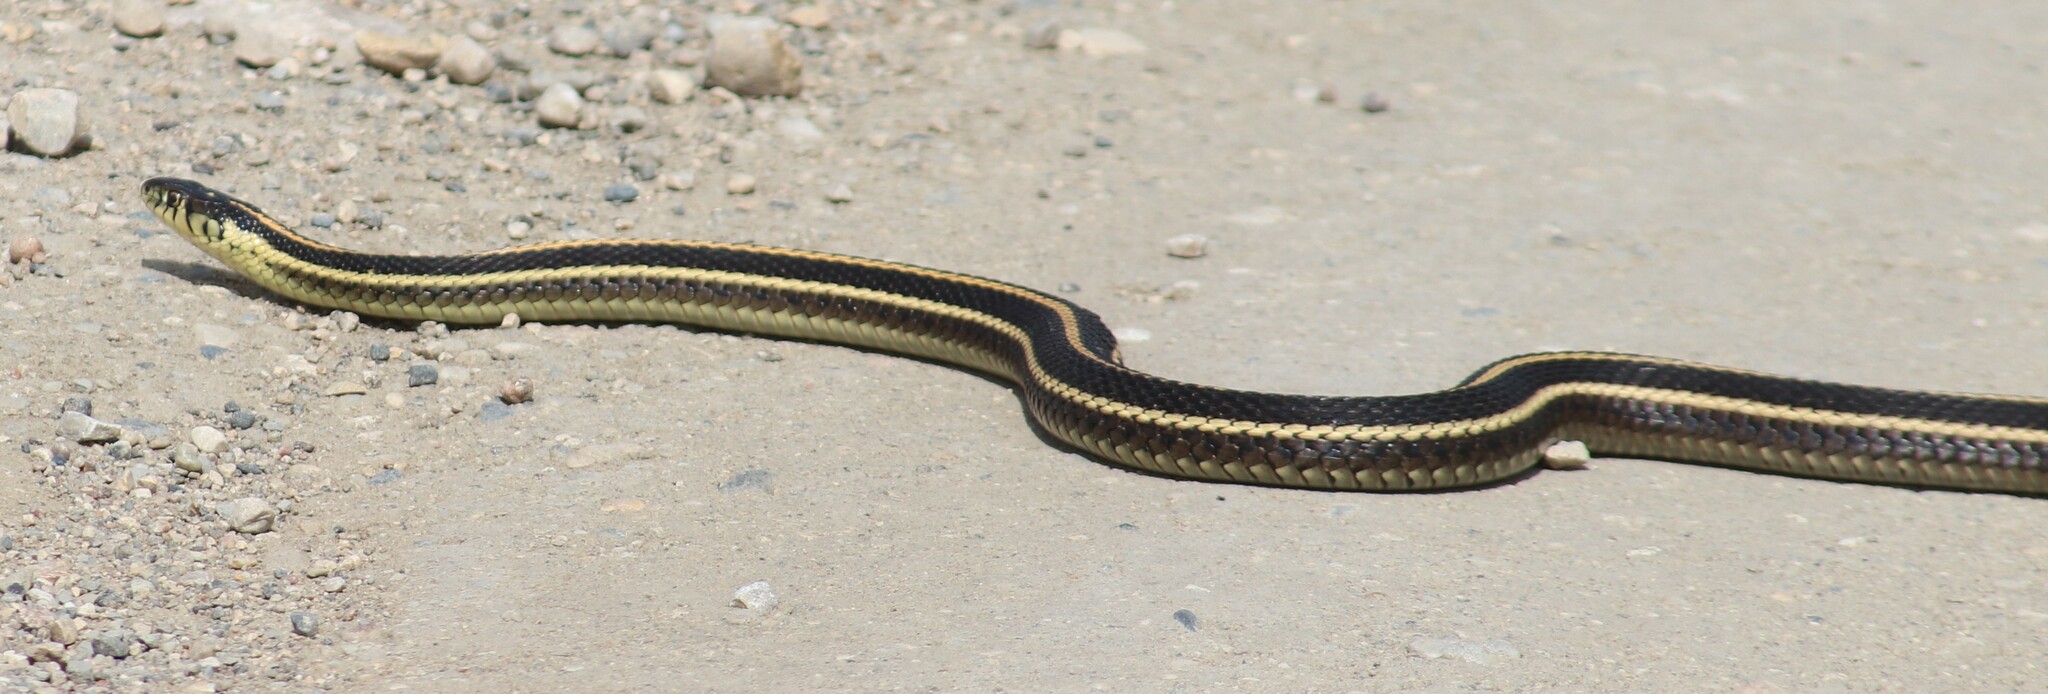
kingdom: Animalia
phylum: Chordata
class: Squamata
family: Colubridae
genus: Thamnophis
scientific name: Thamnophis radix
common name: Plains garter snake
